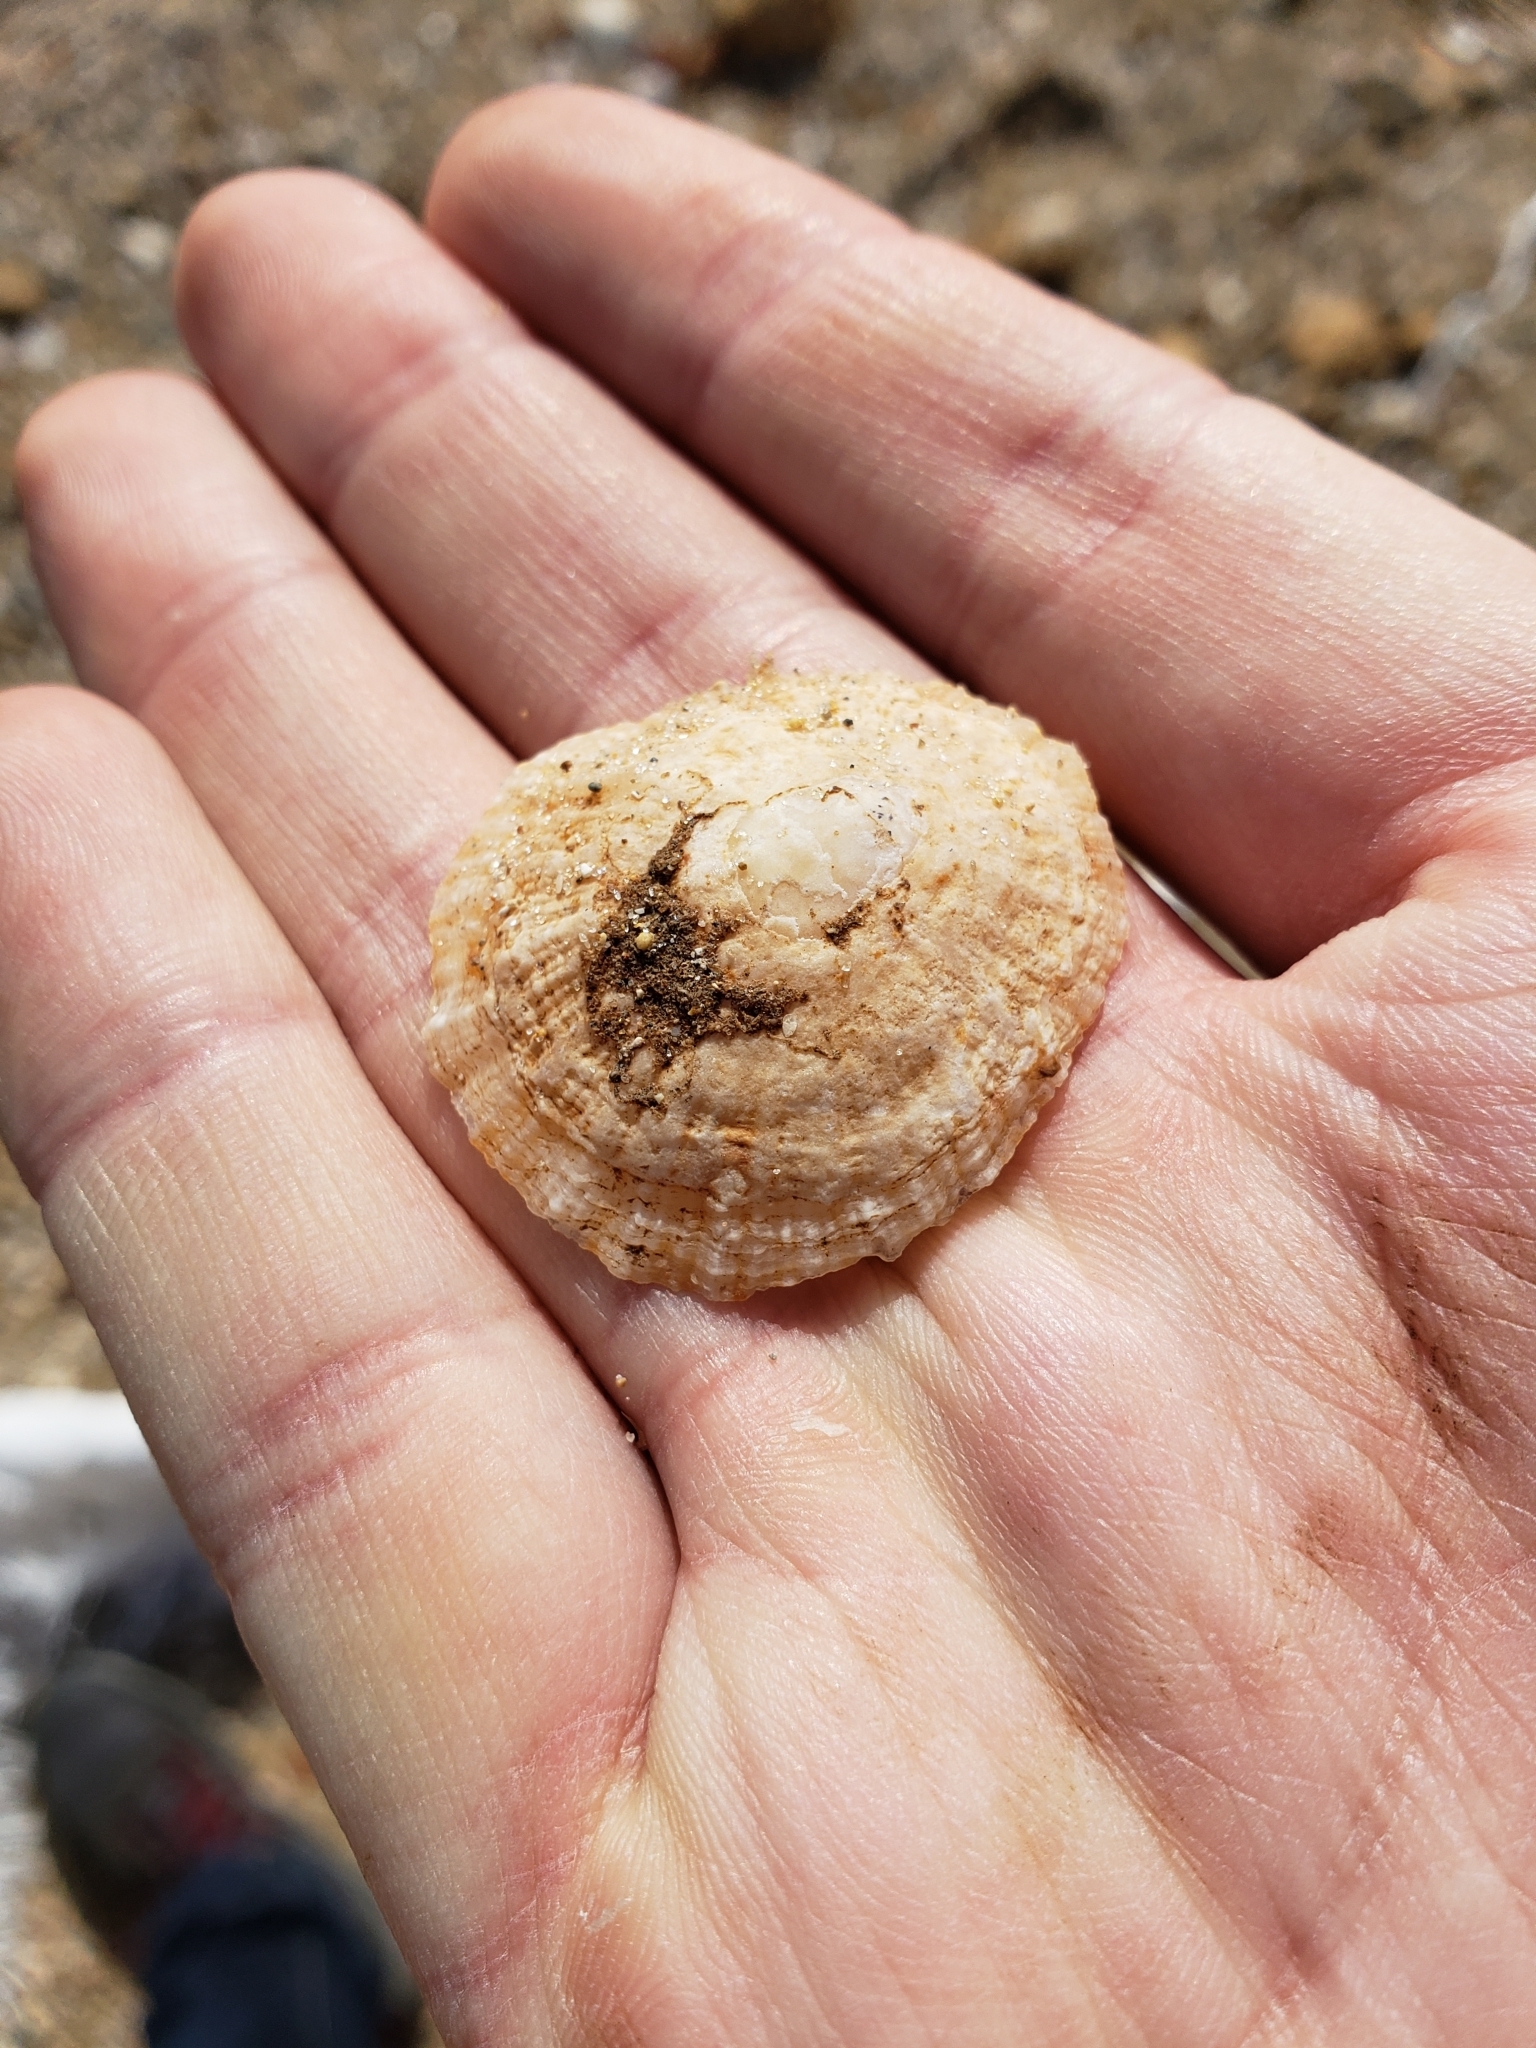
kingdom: Animalia
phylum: Mollusca
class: Gastropoda
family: Patellidae
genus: Patella
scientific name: Patella caerulea
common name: Mediterranean limpet
